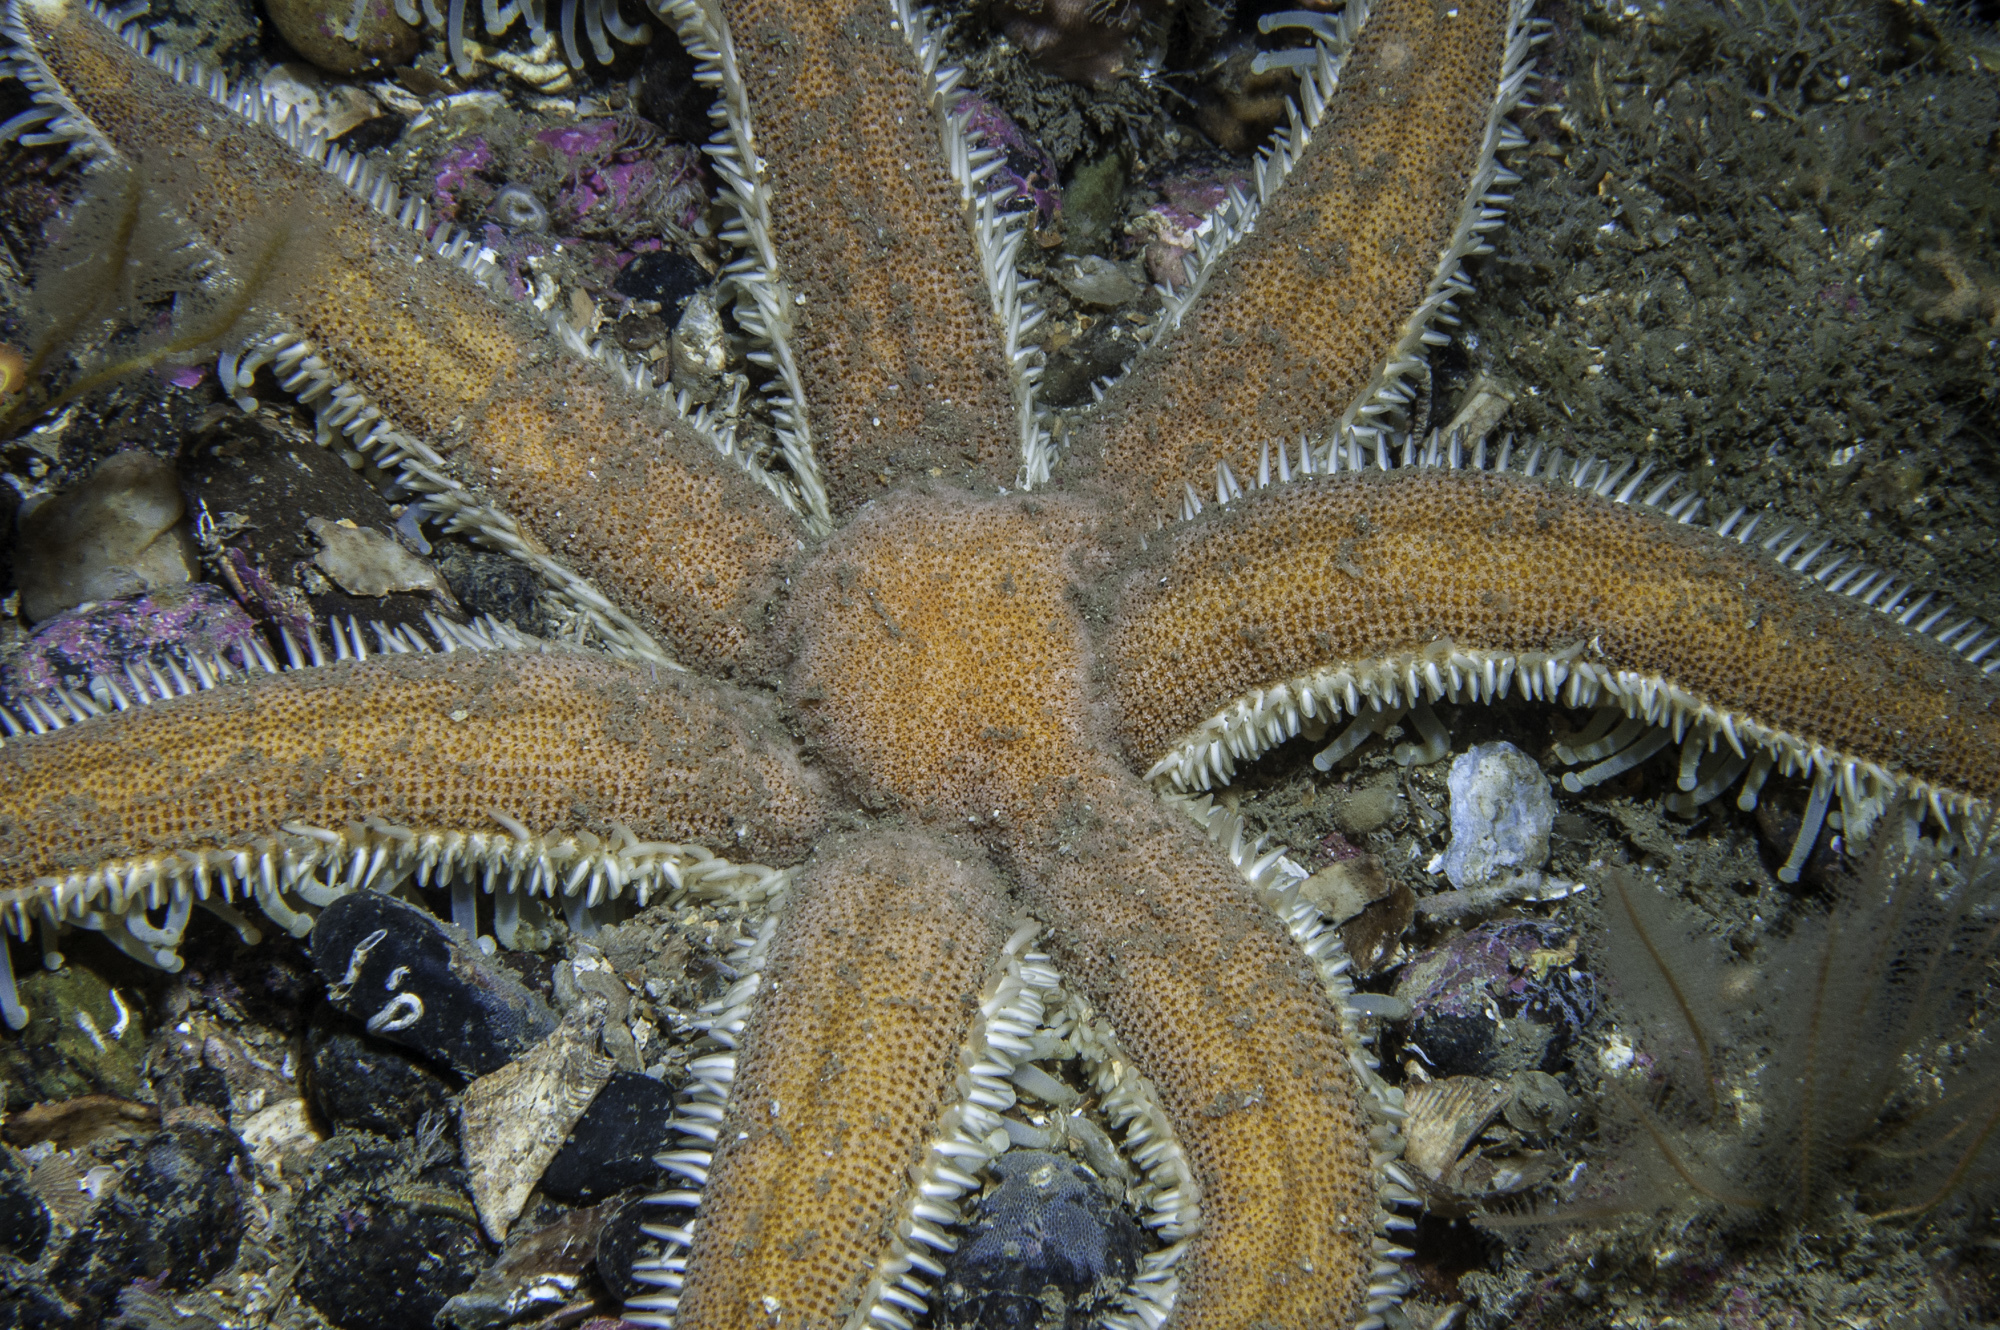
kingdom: Animalia
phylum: Echinodermata
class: Asteroidea
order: Paxillosida
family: Luidiidae
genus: Luidia
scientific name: Luidia ciliaris
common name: Seven-armed starfish
